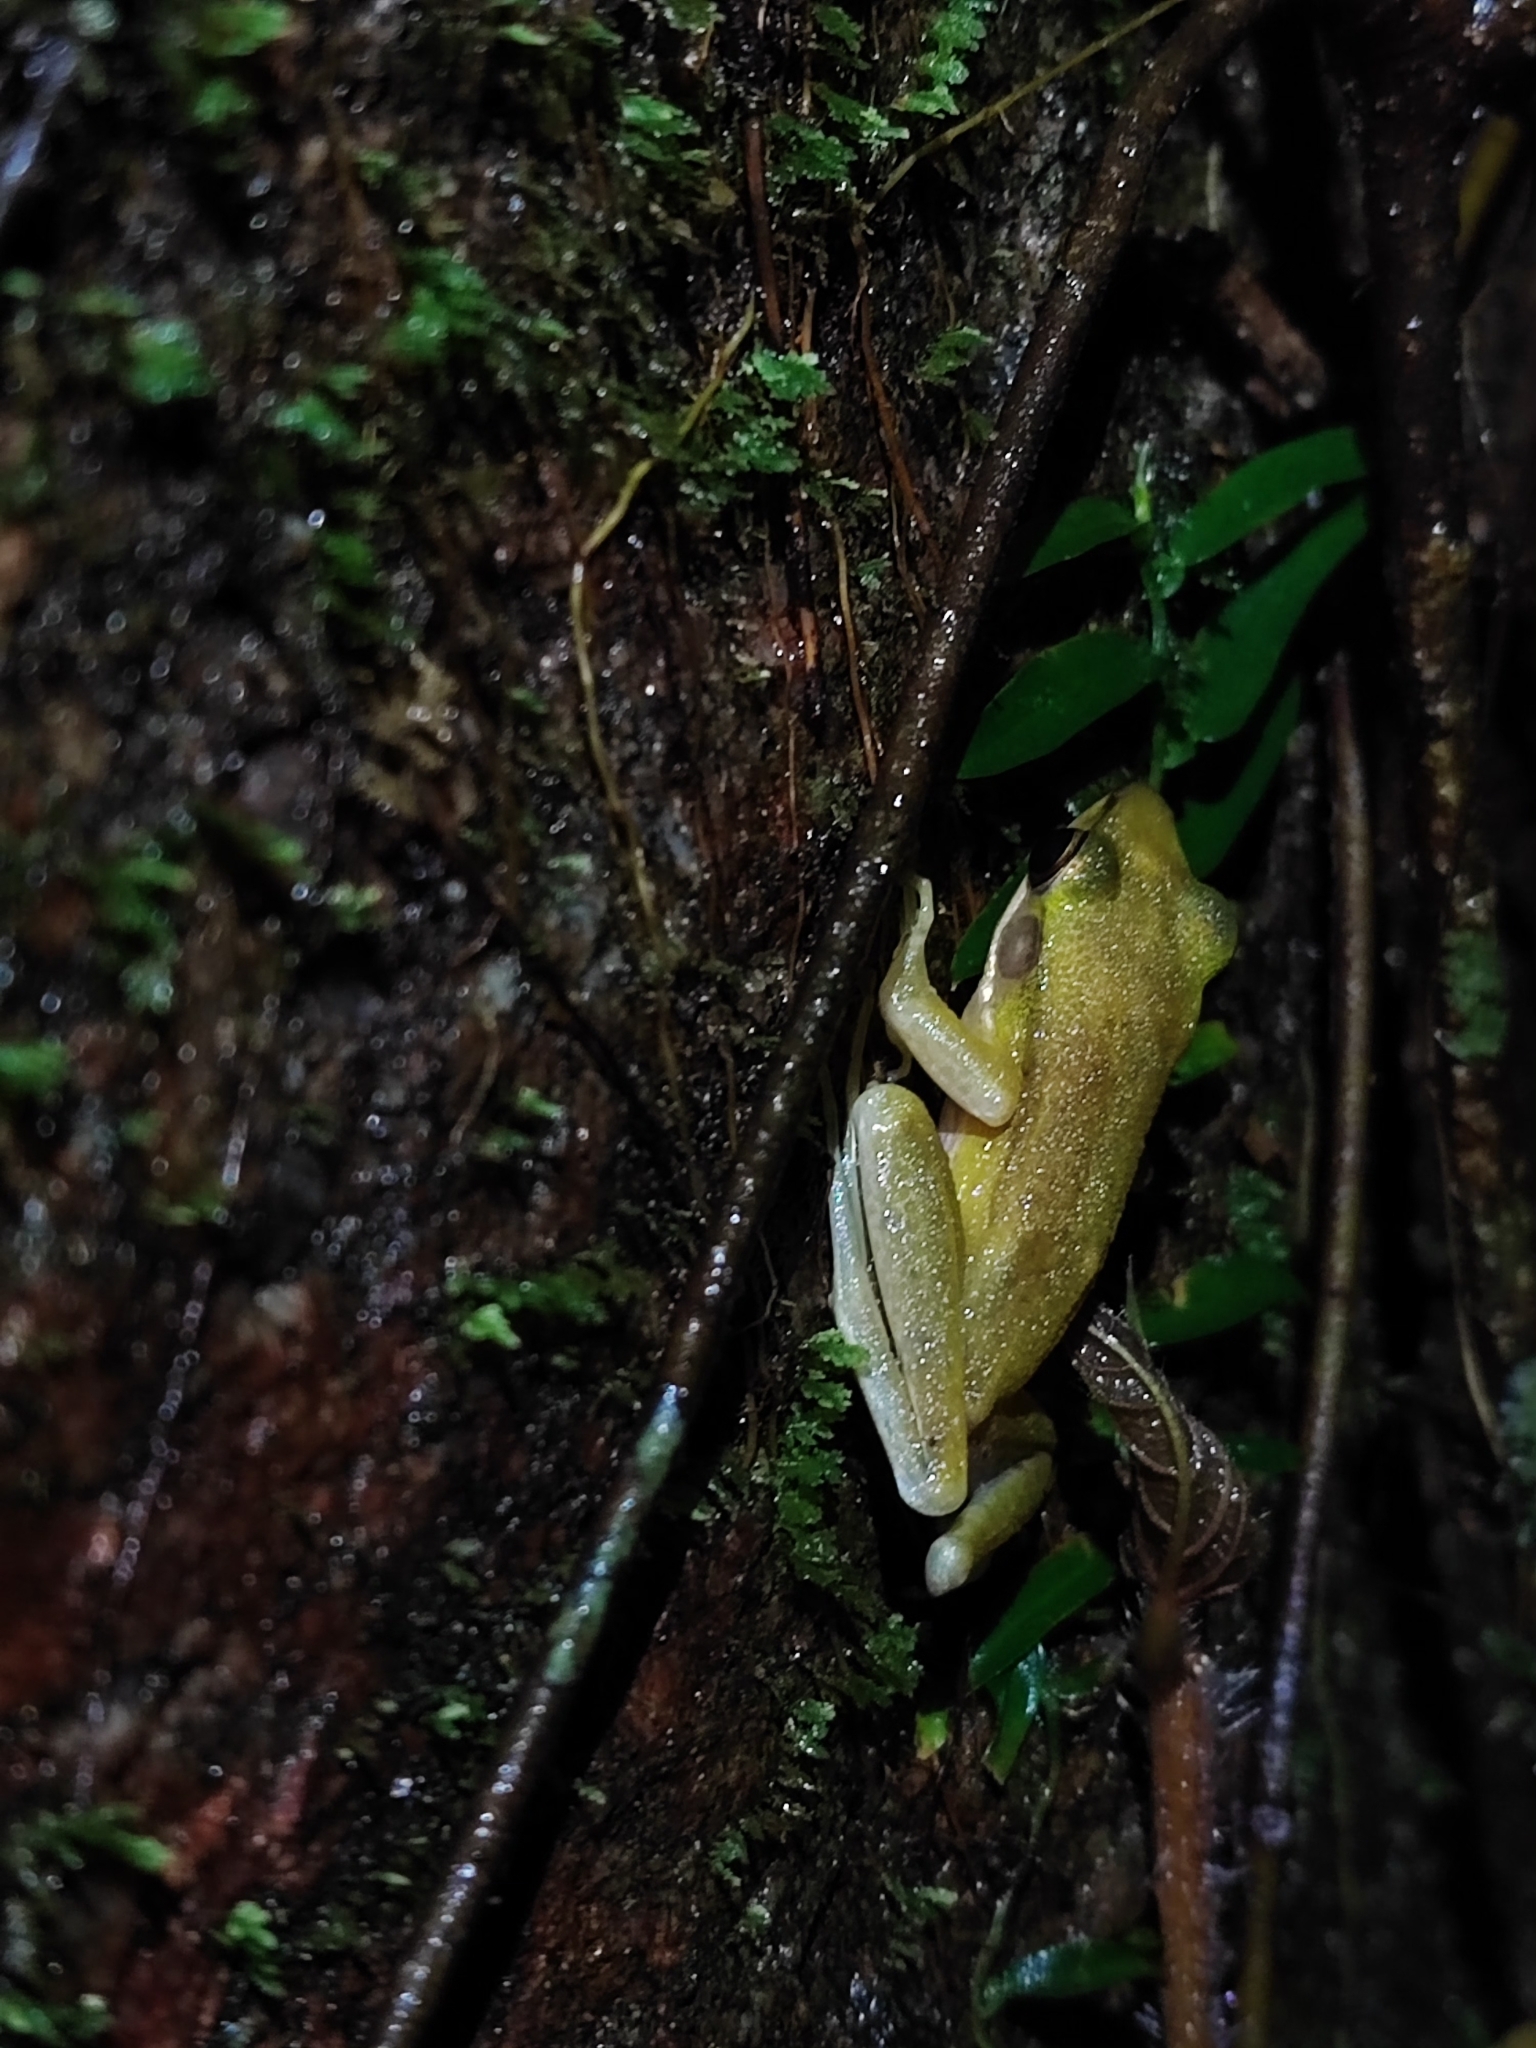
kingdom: Animalia
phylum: Chordata
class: Amphibia
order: Anura
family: Ranidae
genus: Chalcorana
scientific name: Chalcorana eschatia
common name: Tenasserim white-lipped frog
